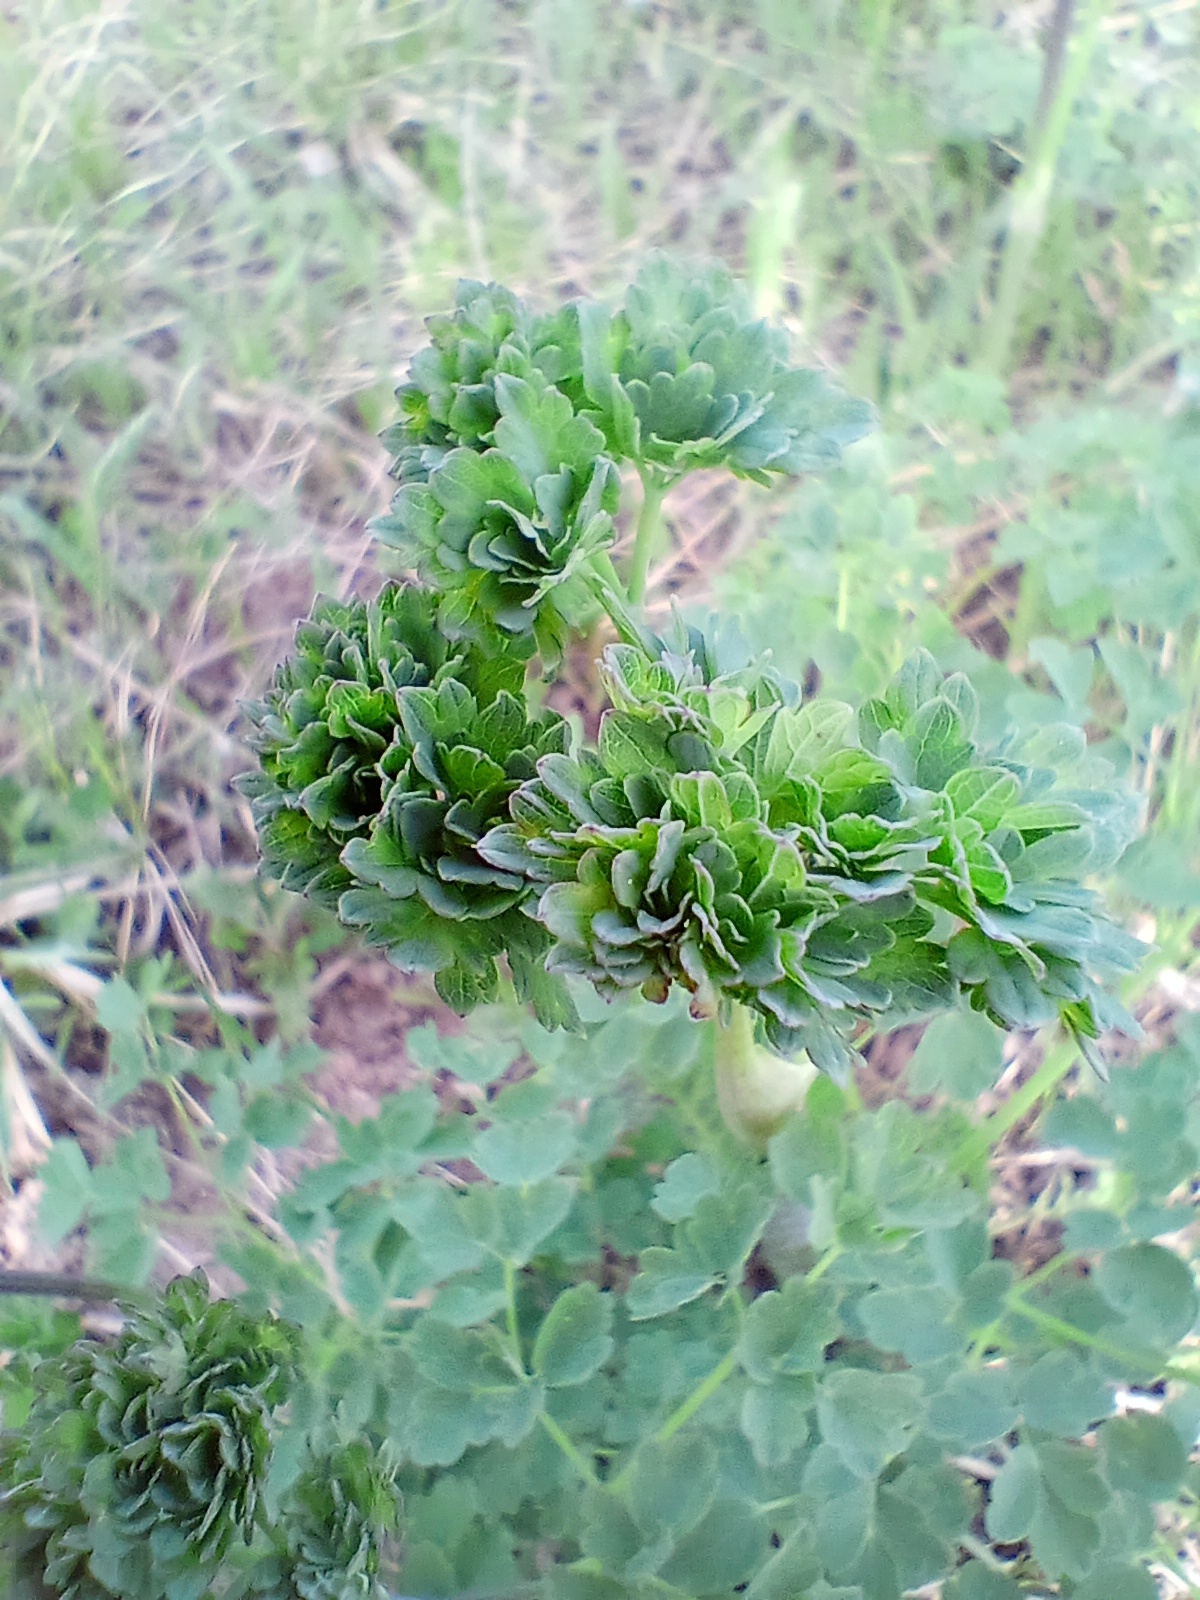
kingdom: Plantae
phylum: Tracheophyta
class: Magnoliopsida
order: Ranunculales
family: Ranunculaceae
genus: Thalictrum
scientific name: Thalictrum minus
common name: Lesser meadow-rue
